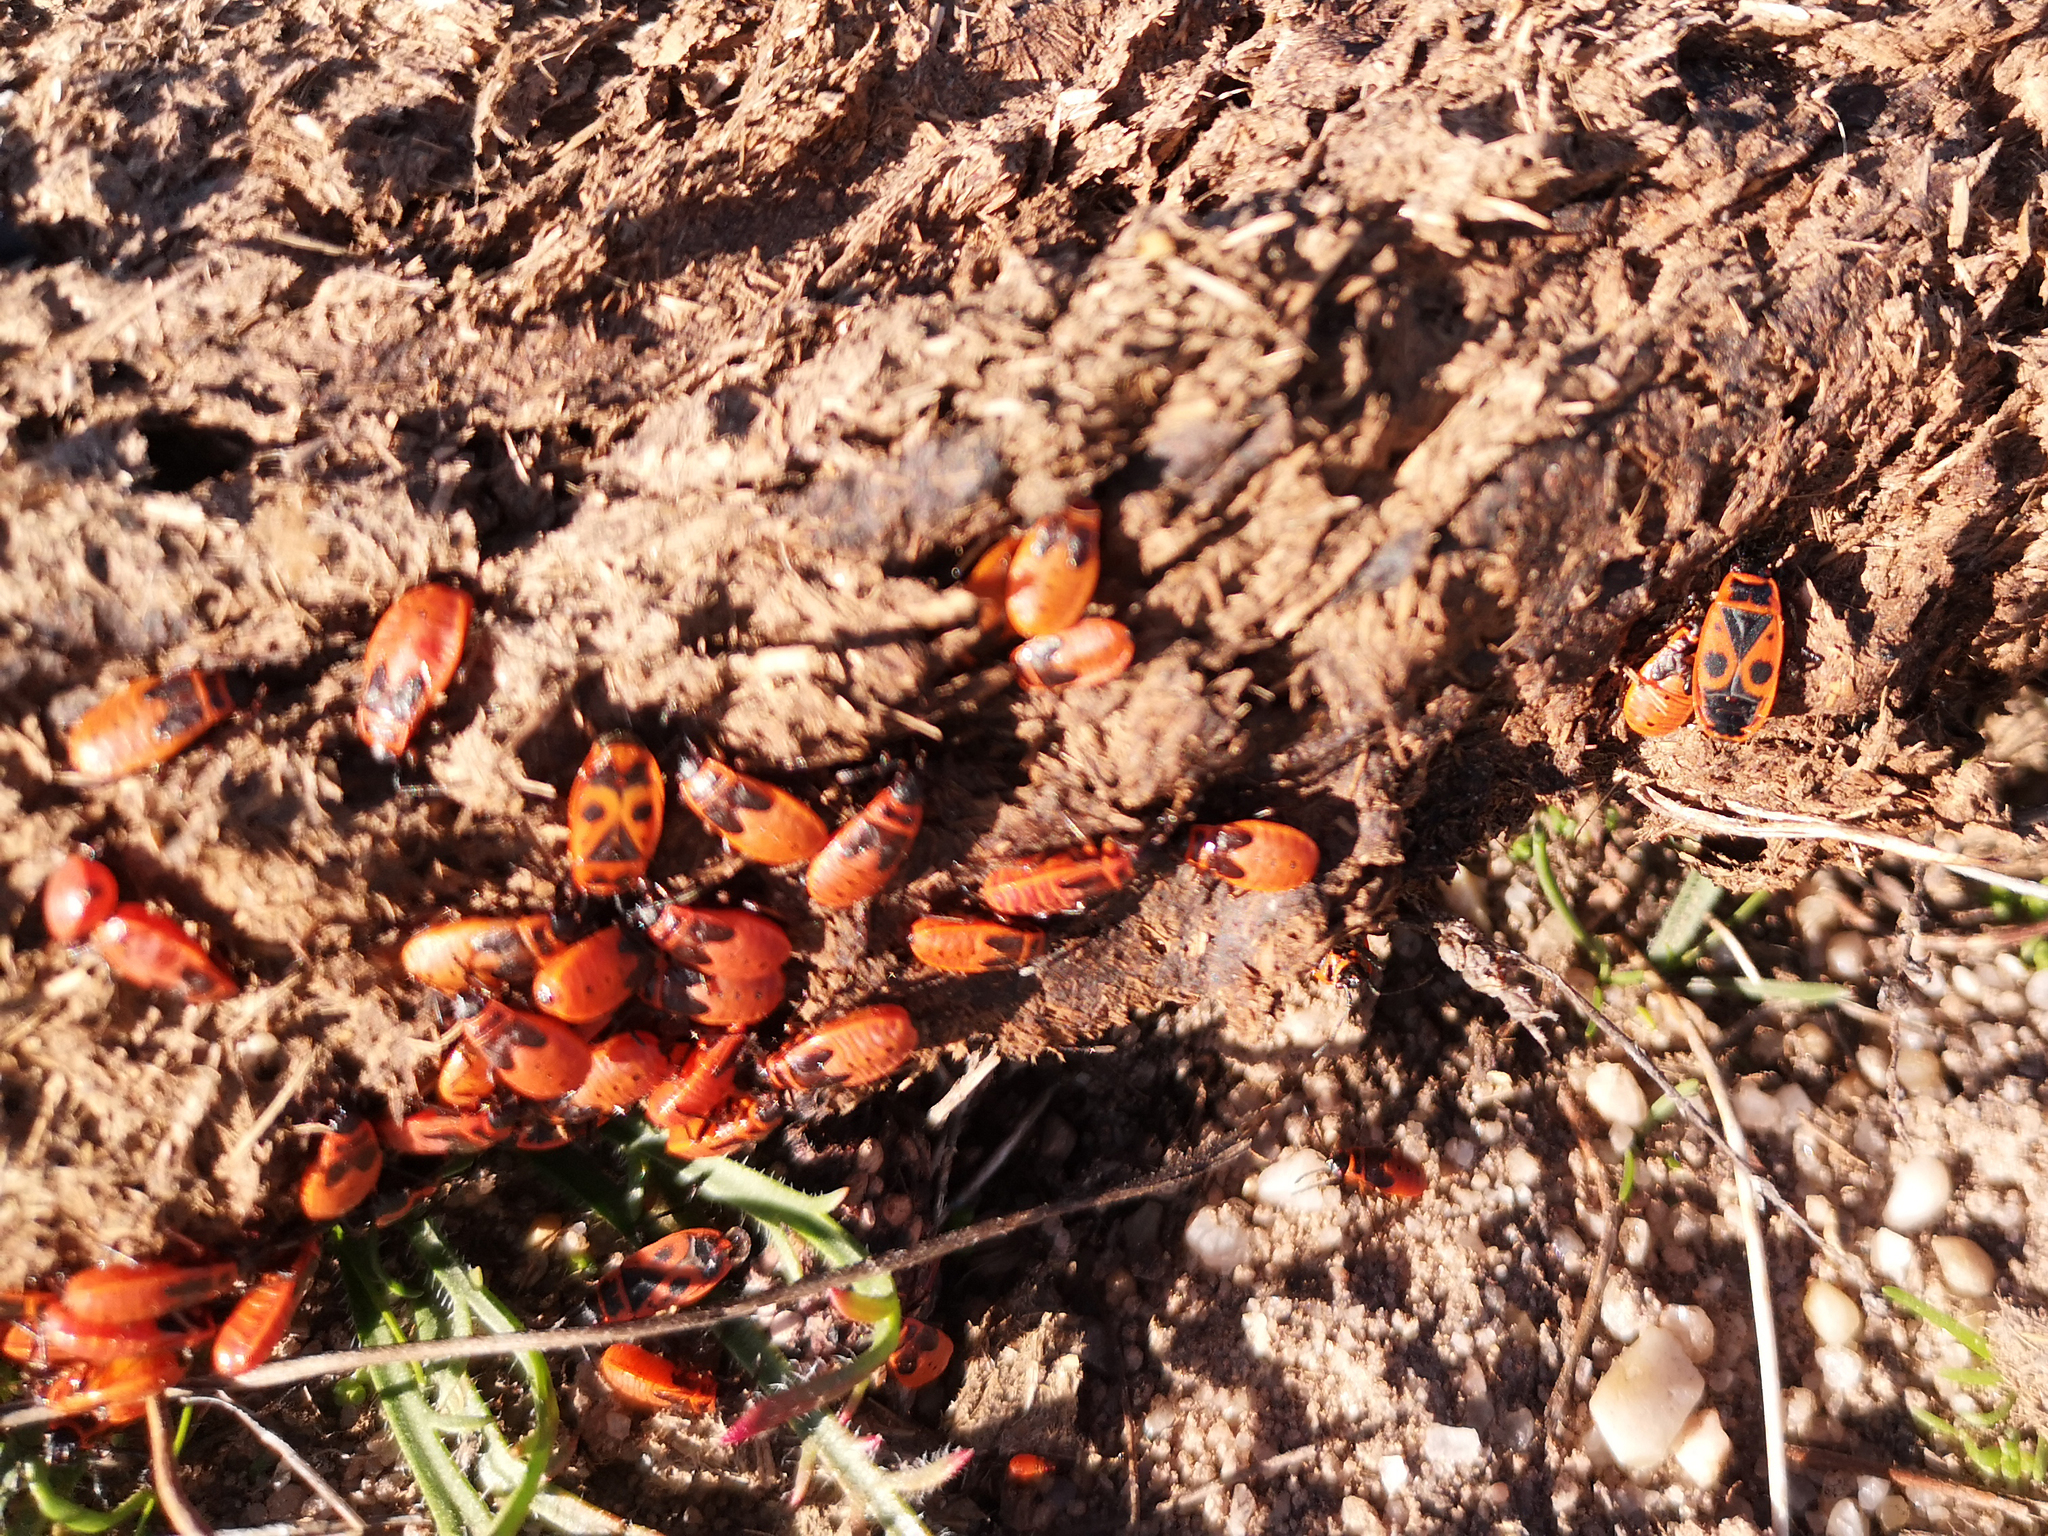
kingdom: Animalia
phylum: Arthropoda
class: Insecta
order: Hemiptera
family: Pyrrhocoridae
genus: Pyrrhocoris
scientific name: Pyrrhocoris apterus
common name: Firebug
